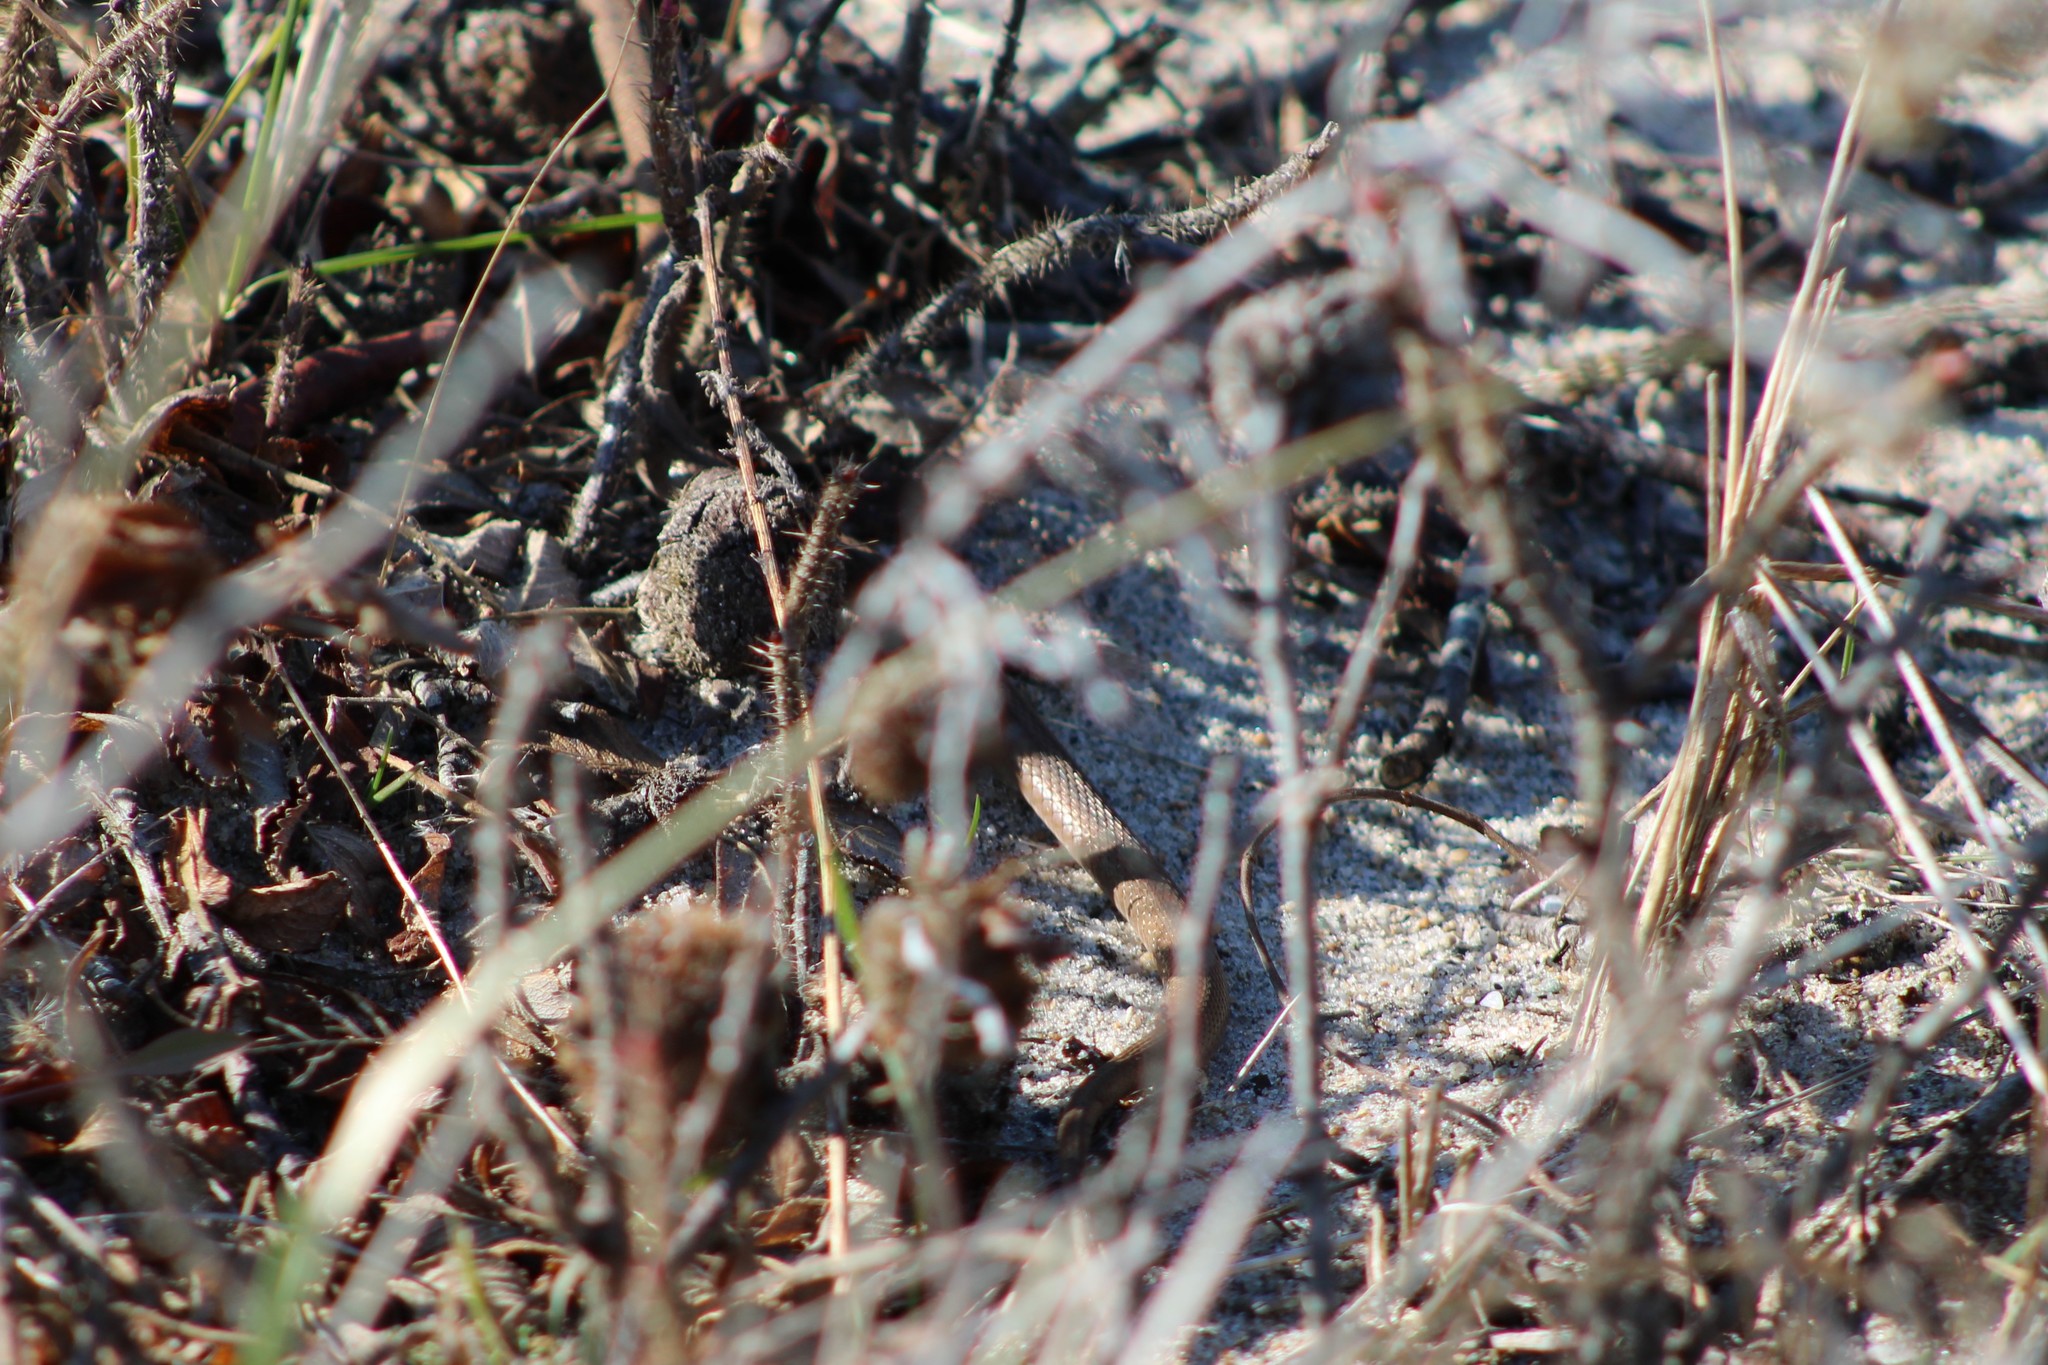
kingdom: Animalia
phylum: Chordata
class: Squamata
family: Colubridae
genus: Storeria
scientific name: Storeria dekayi
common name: (dekay’s) brown snake
